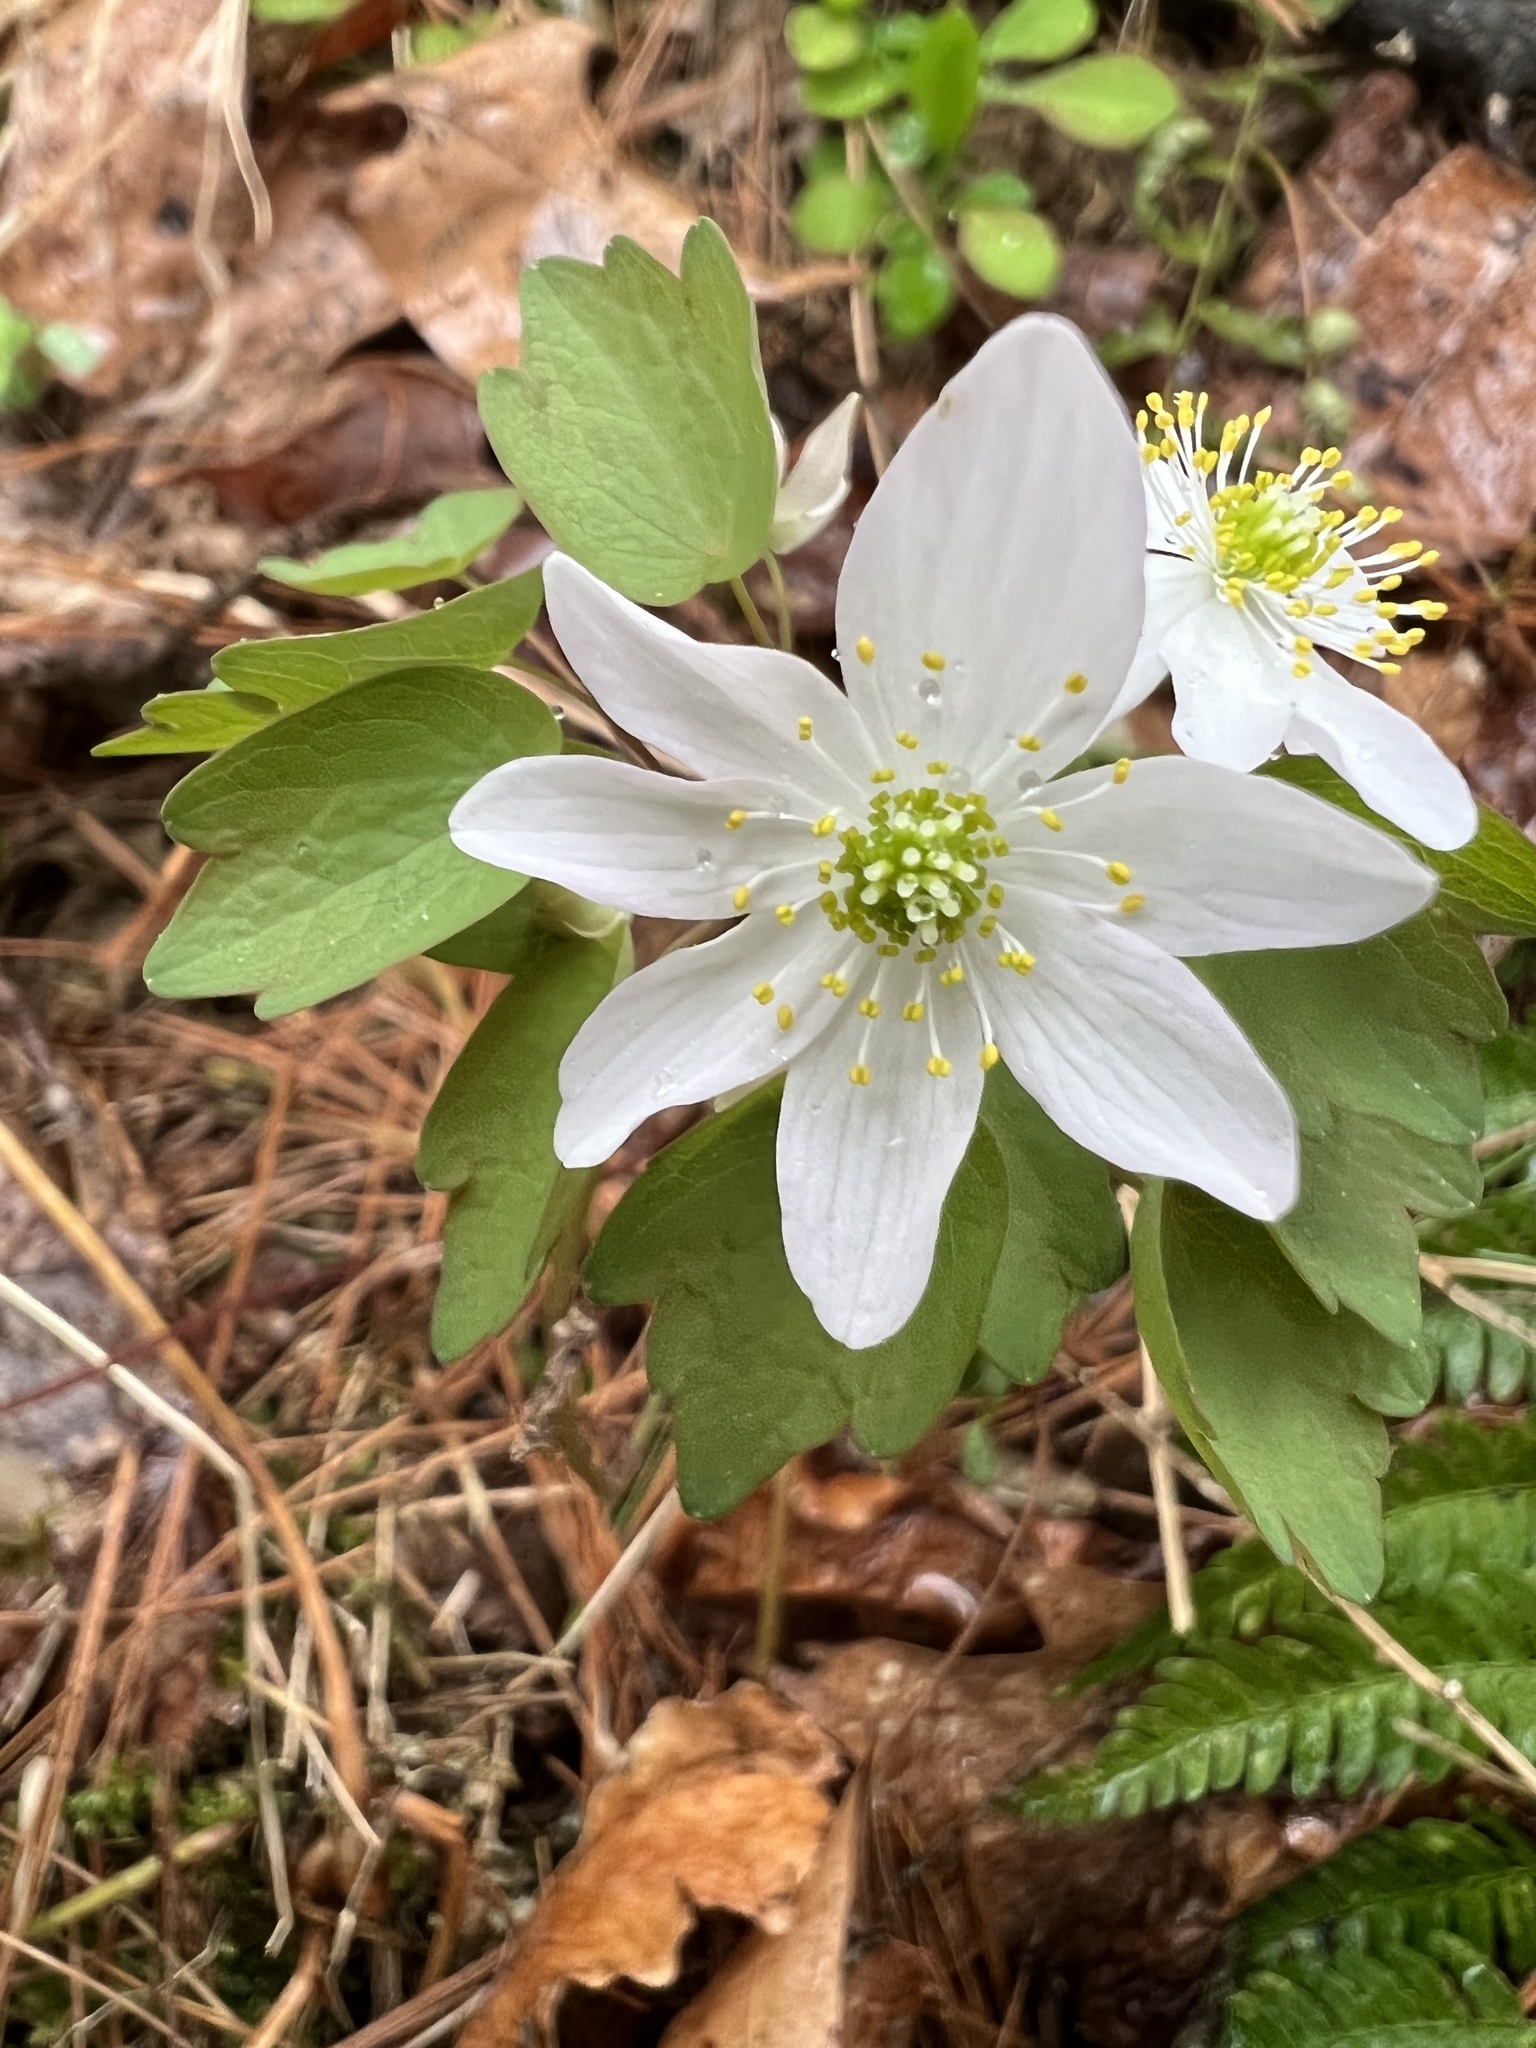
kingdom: Plantae
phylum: Tracheophyta
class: Magnoliopsida
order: Ranunculales
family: Ranunculaceae
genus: Thalictrum
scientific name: Thalictrum thalictroides
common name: Rue-anemone
